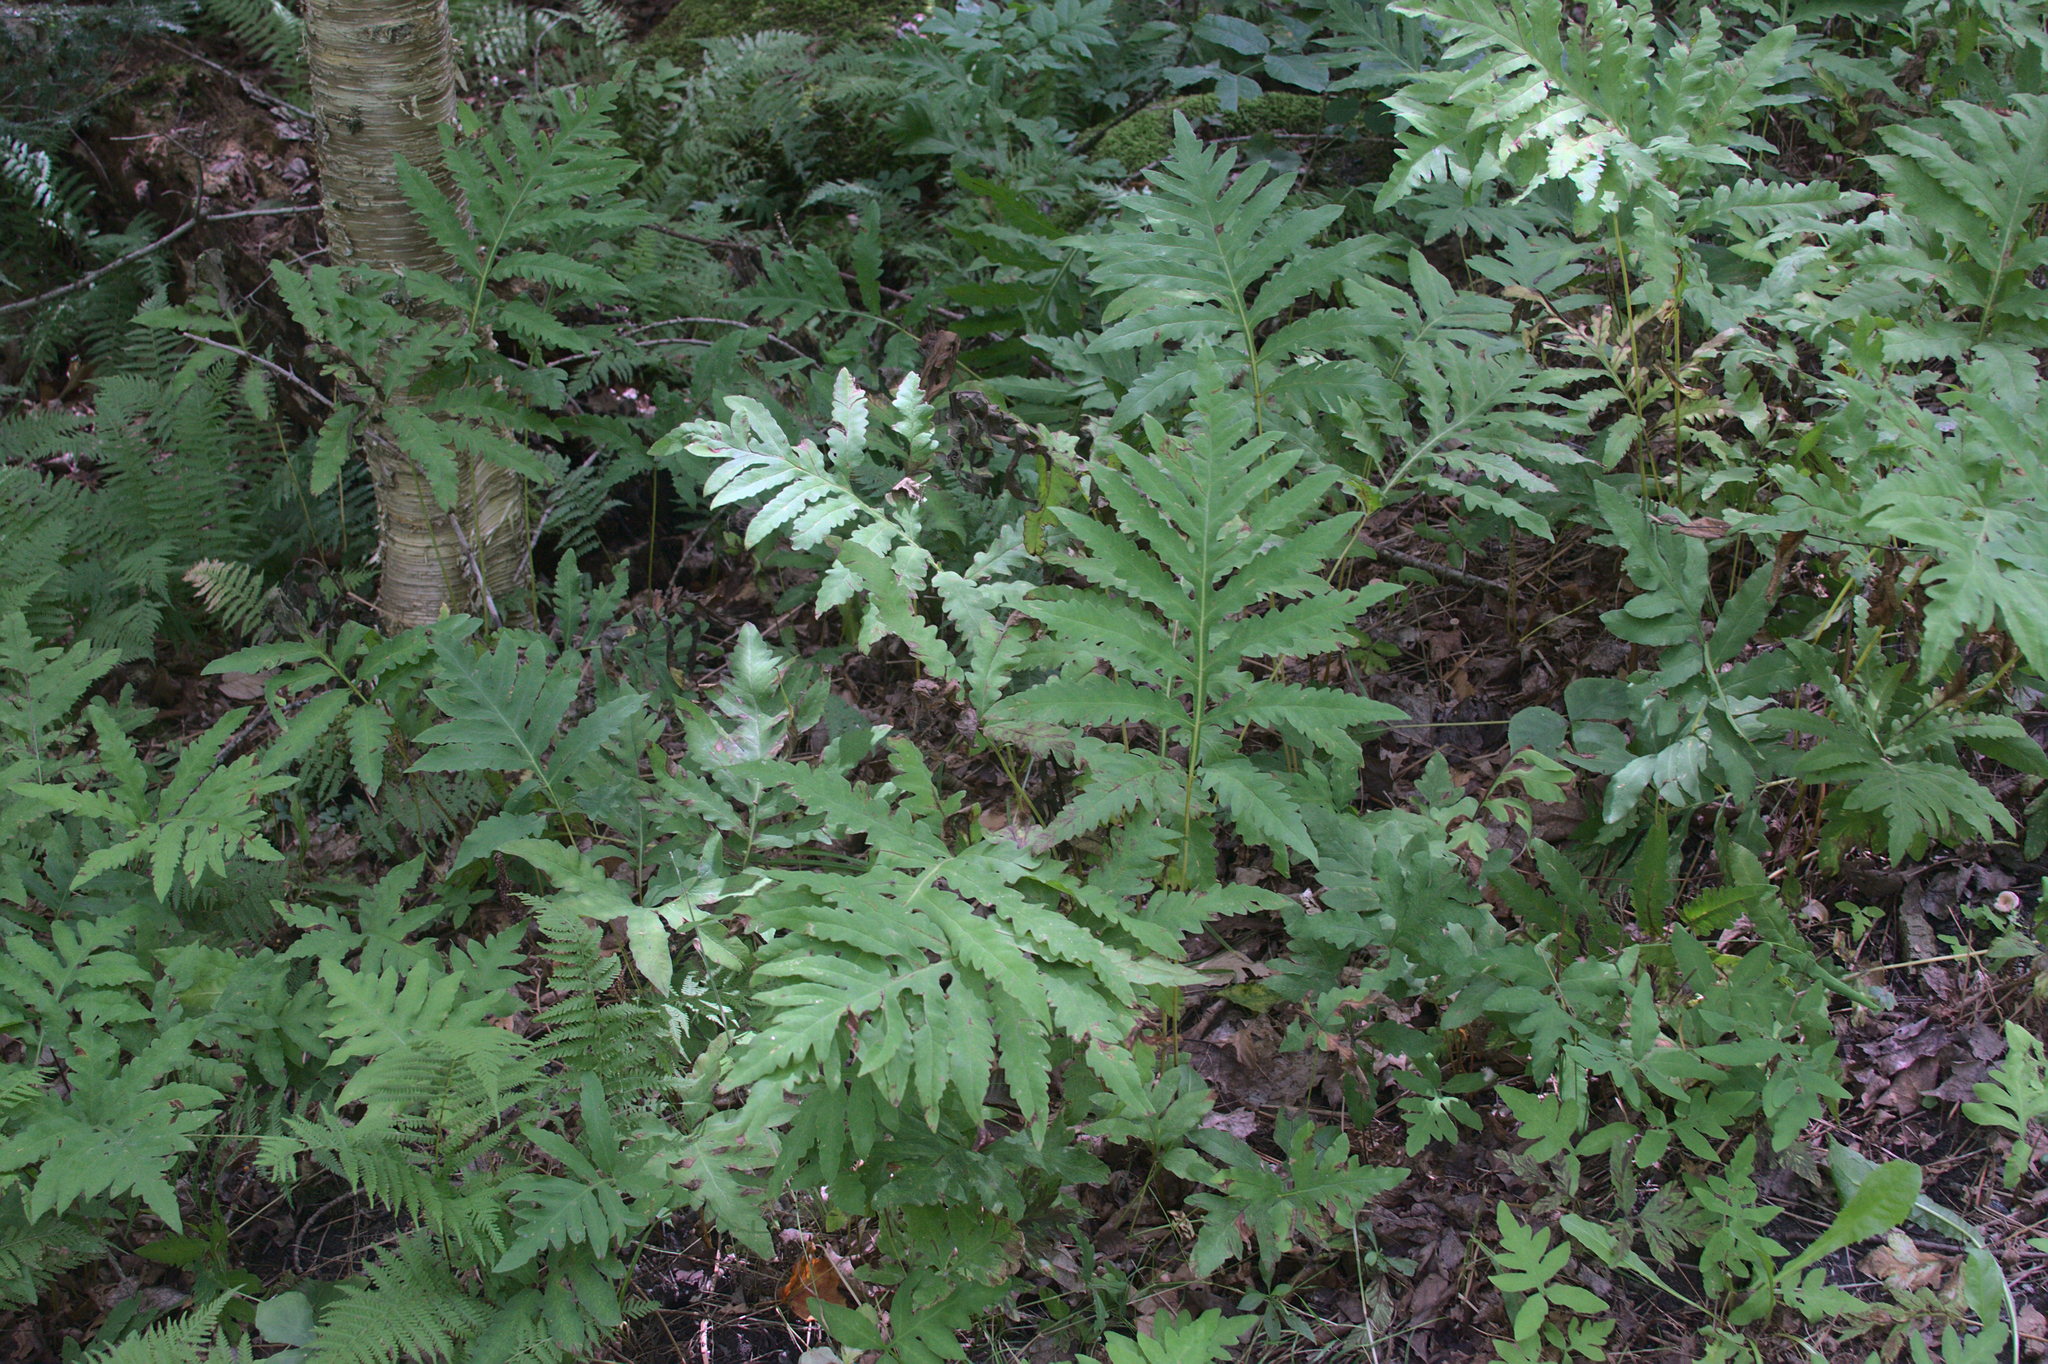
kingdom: Plantae
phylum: Tracheophyta
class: Polypodiopsida
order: Polypodiales
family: Onocleaceae
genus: Onoclea
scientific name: Onoclea sensibilis
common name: Sensitive fern
